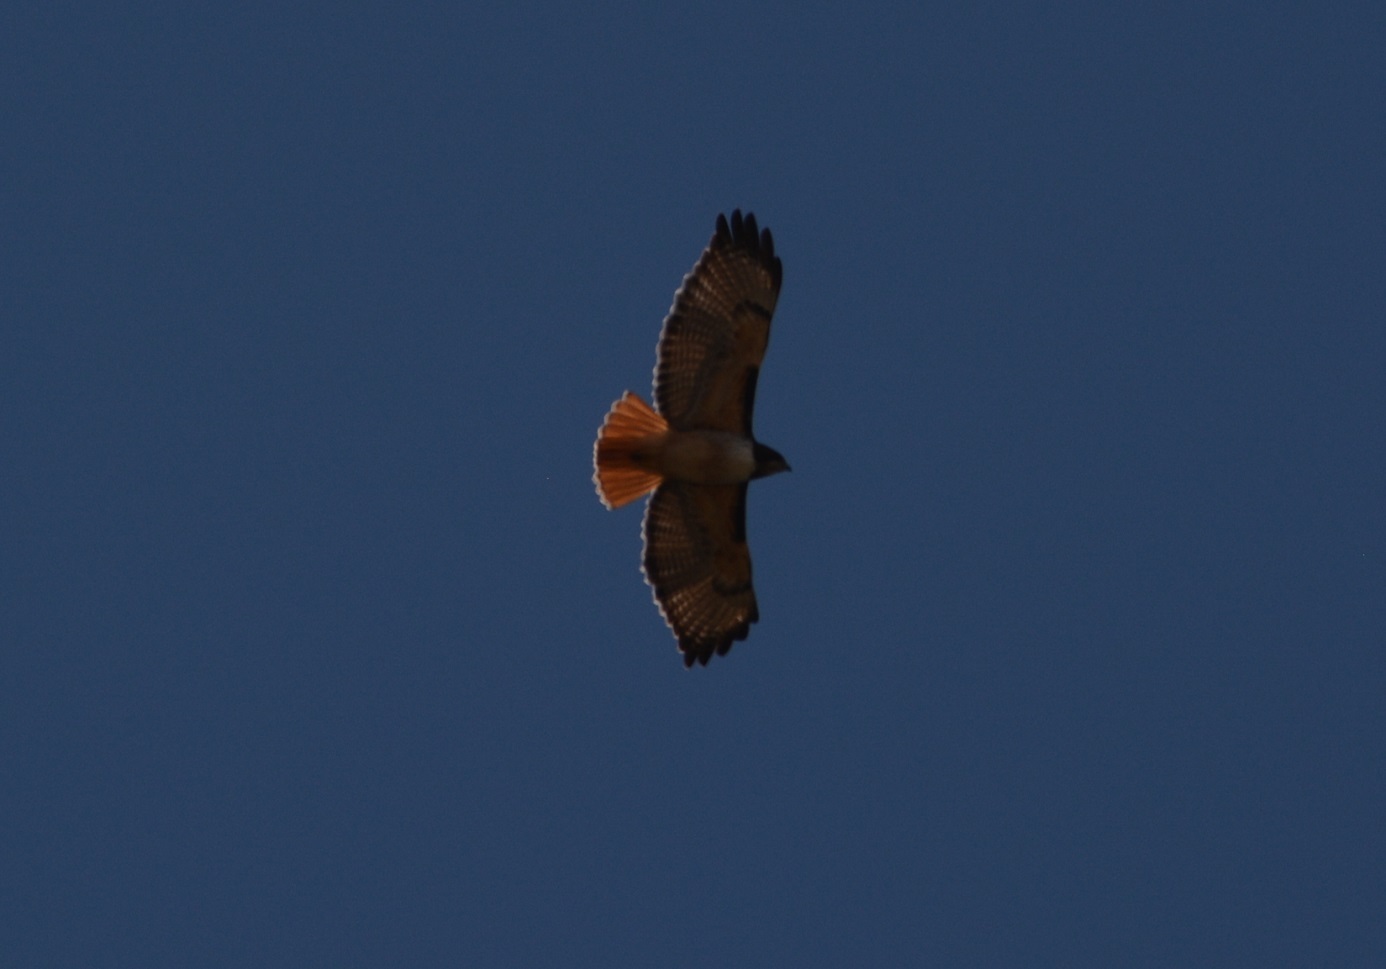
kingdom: Animalia
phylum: Chordata
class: Aves
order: Accipitriformes
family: Accipitridae
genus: Buteo
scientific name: Buteo jamaicensis
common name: Red-tailed hawk
